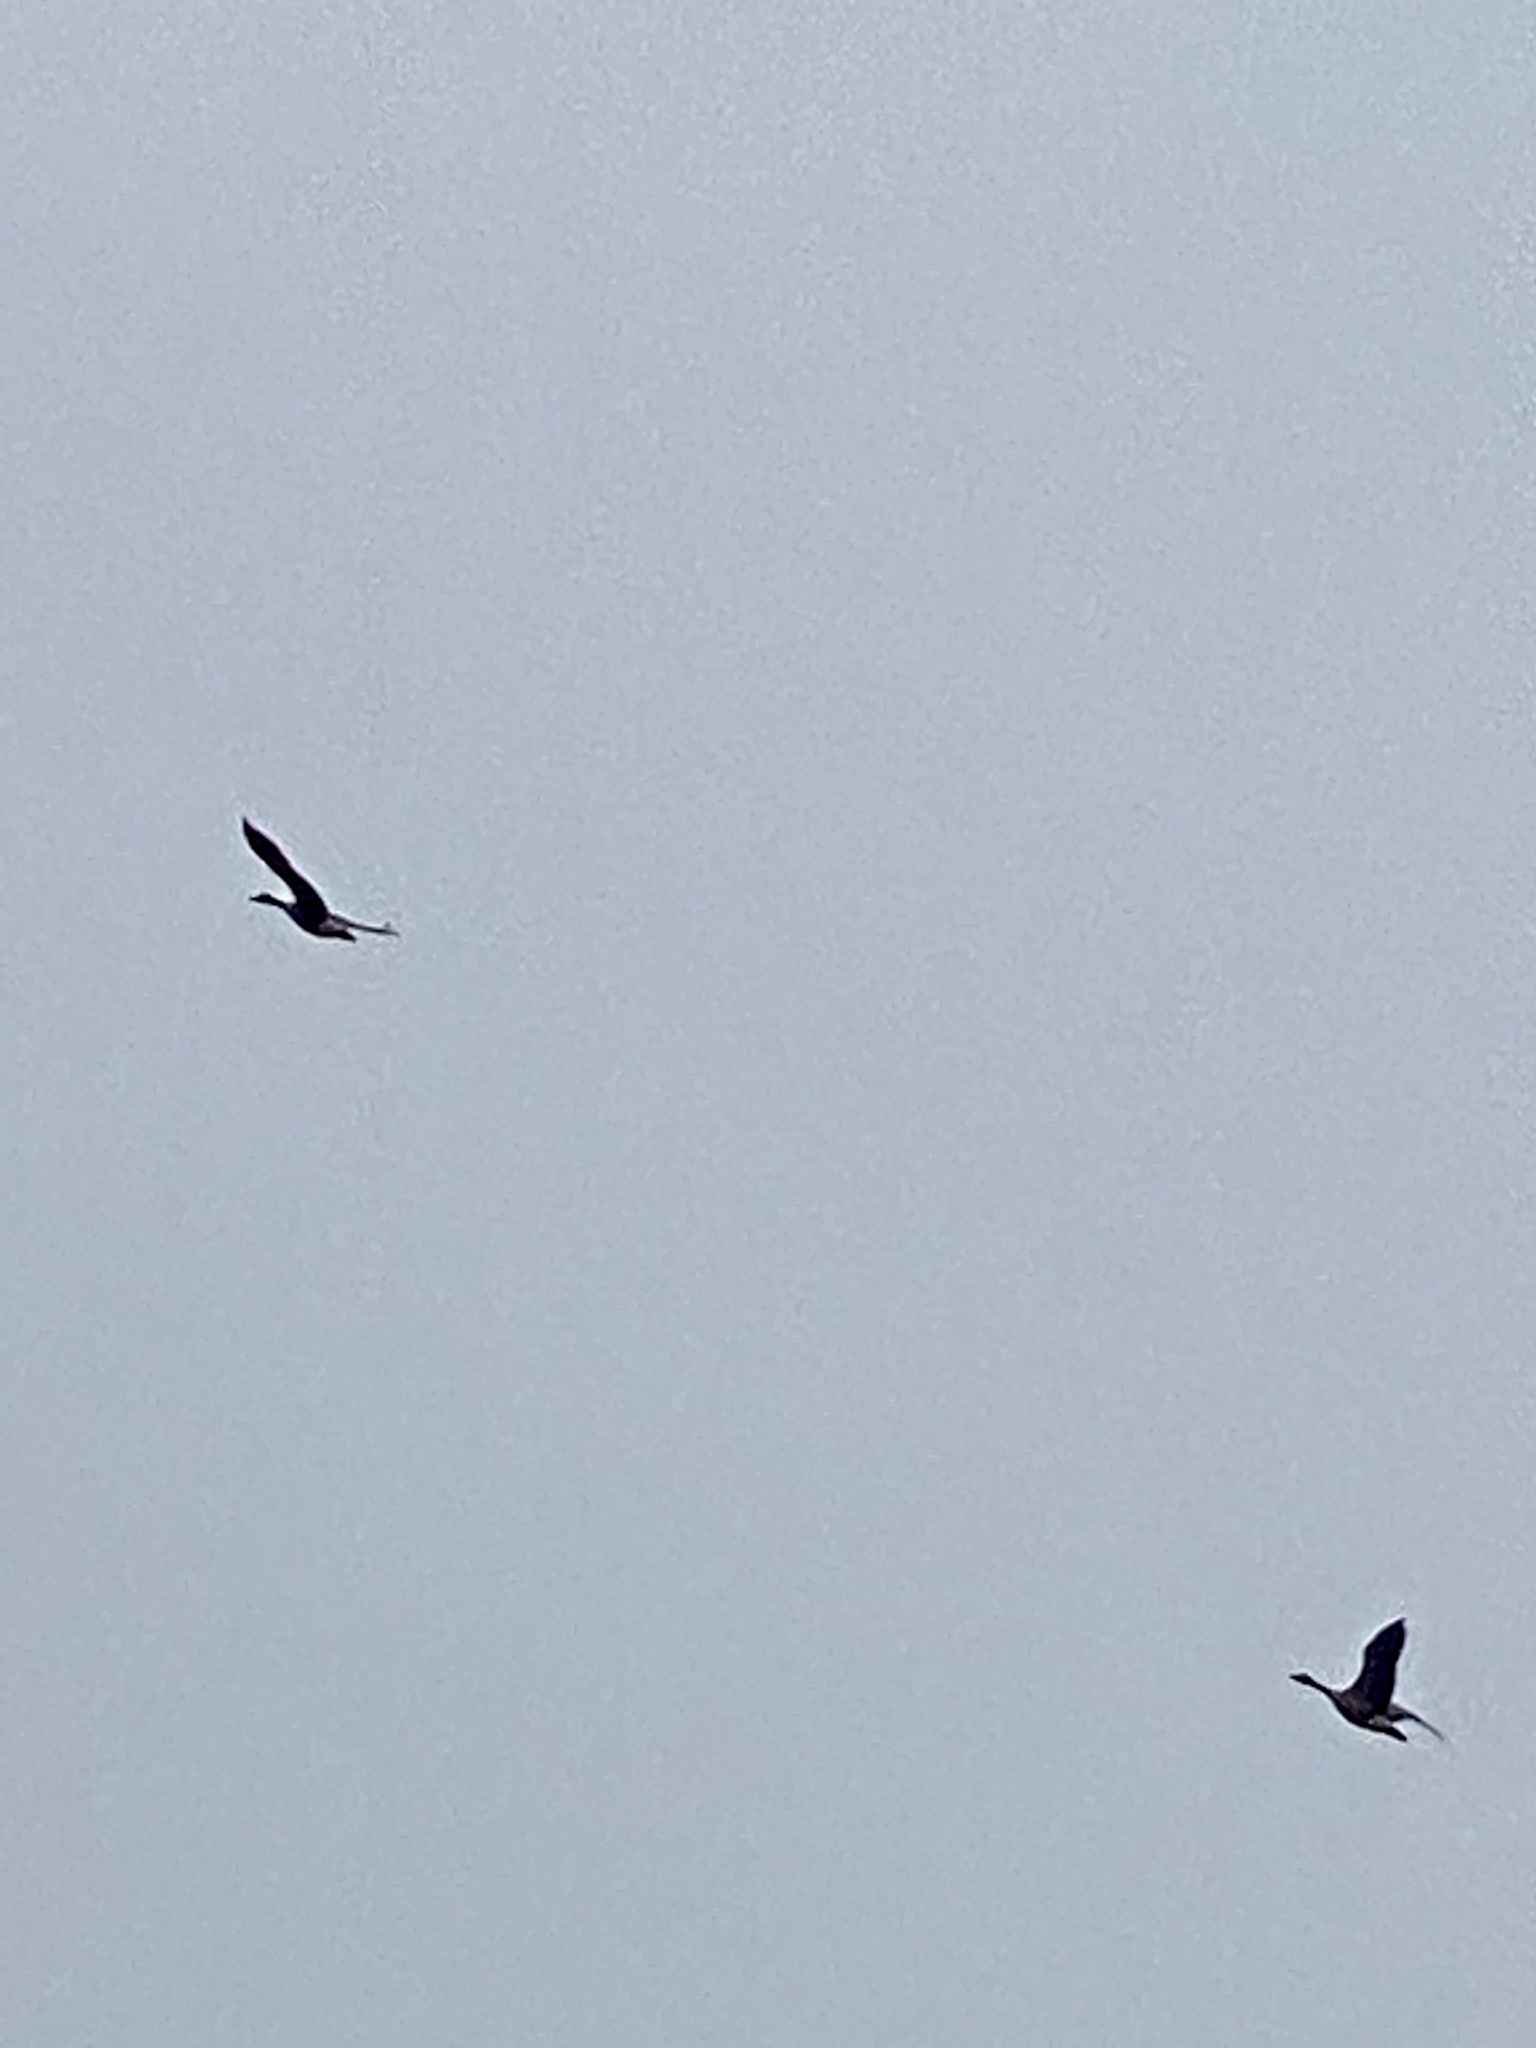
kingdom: Animalia
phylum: Chordata
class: Aves
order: Anseriformes
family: Anatidae
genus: Branta
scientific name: Branta canadensis
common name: Canada goose
